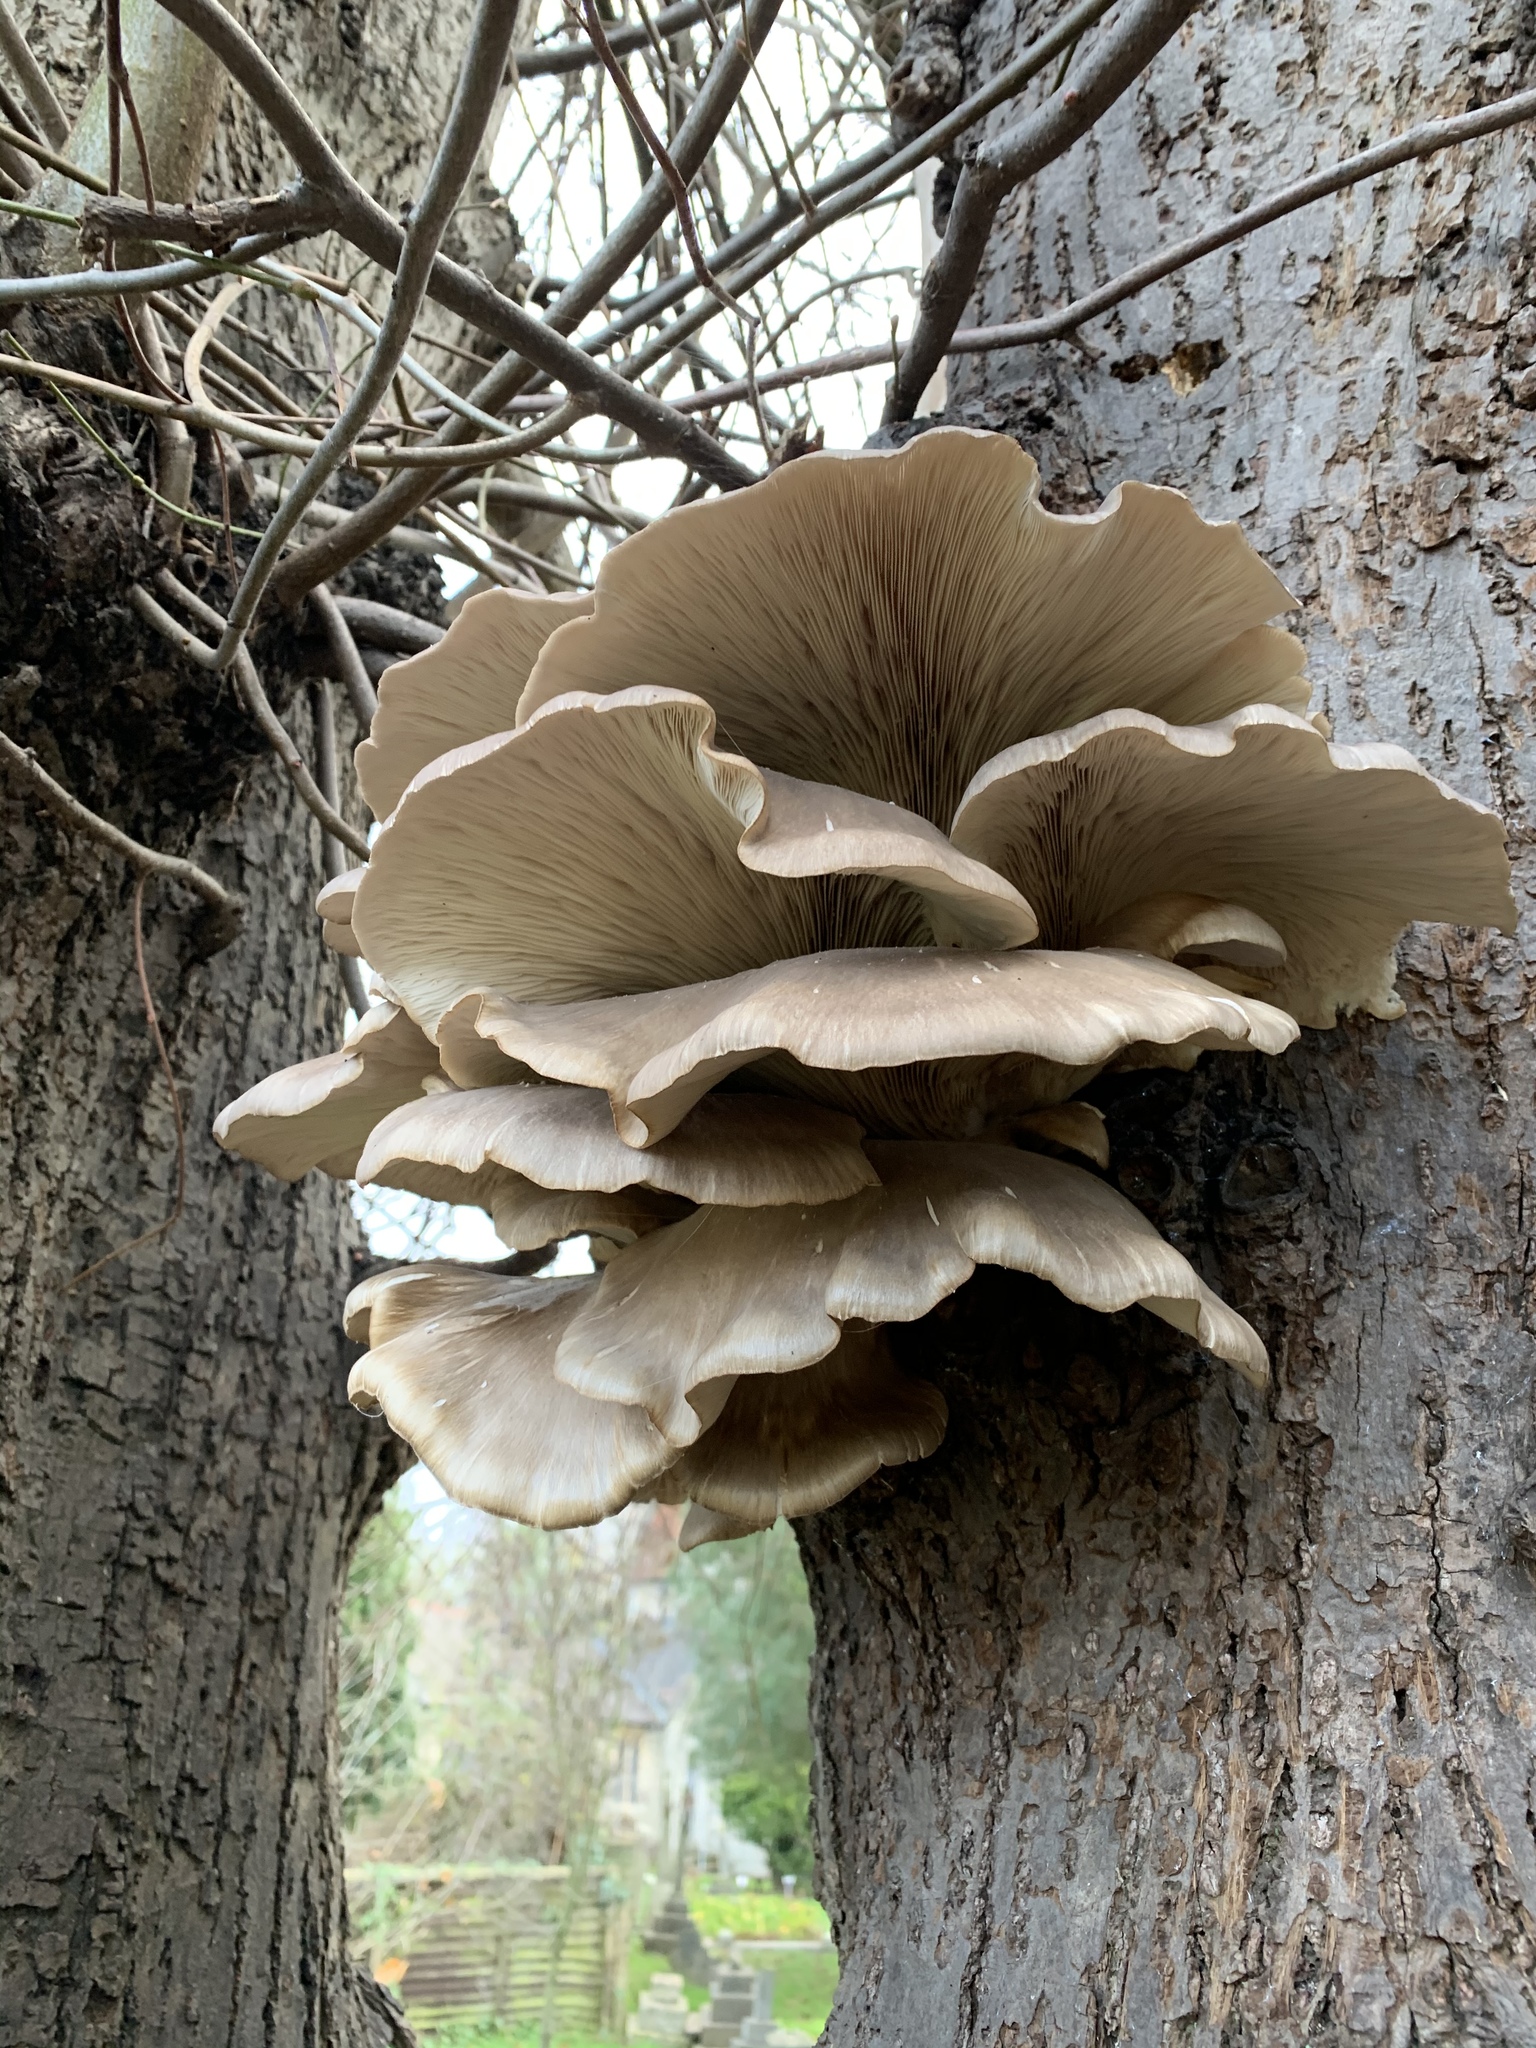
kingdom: Fungi
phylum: Basidiomycota
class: Agaricomycetes
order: Agaricales
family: Pleurotaceae
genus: Pleurotus
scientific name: Pleurotus ostreatus
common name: Oyster mushroom
